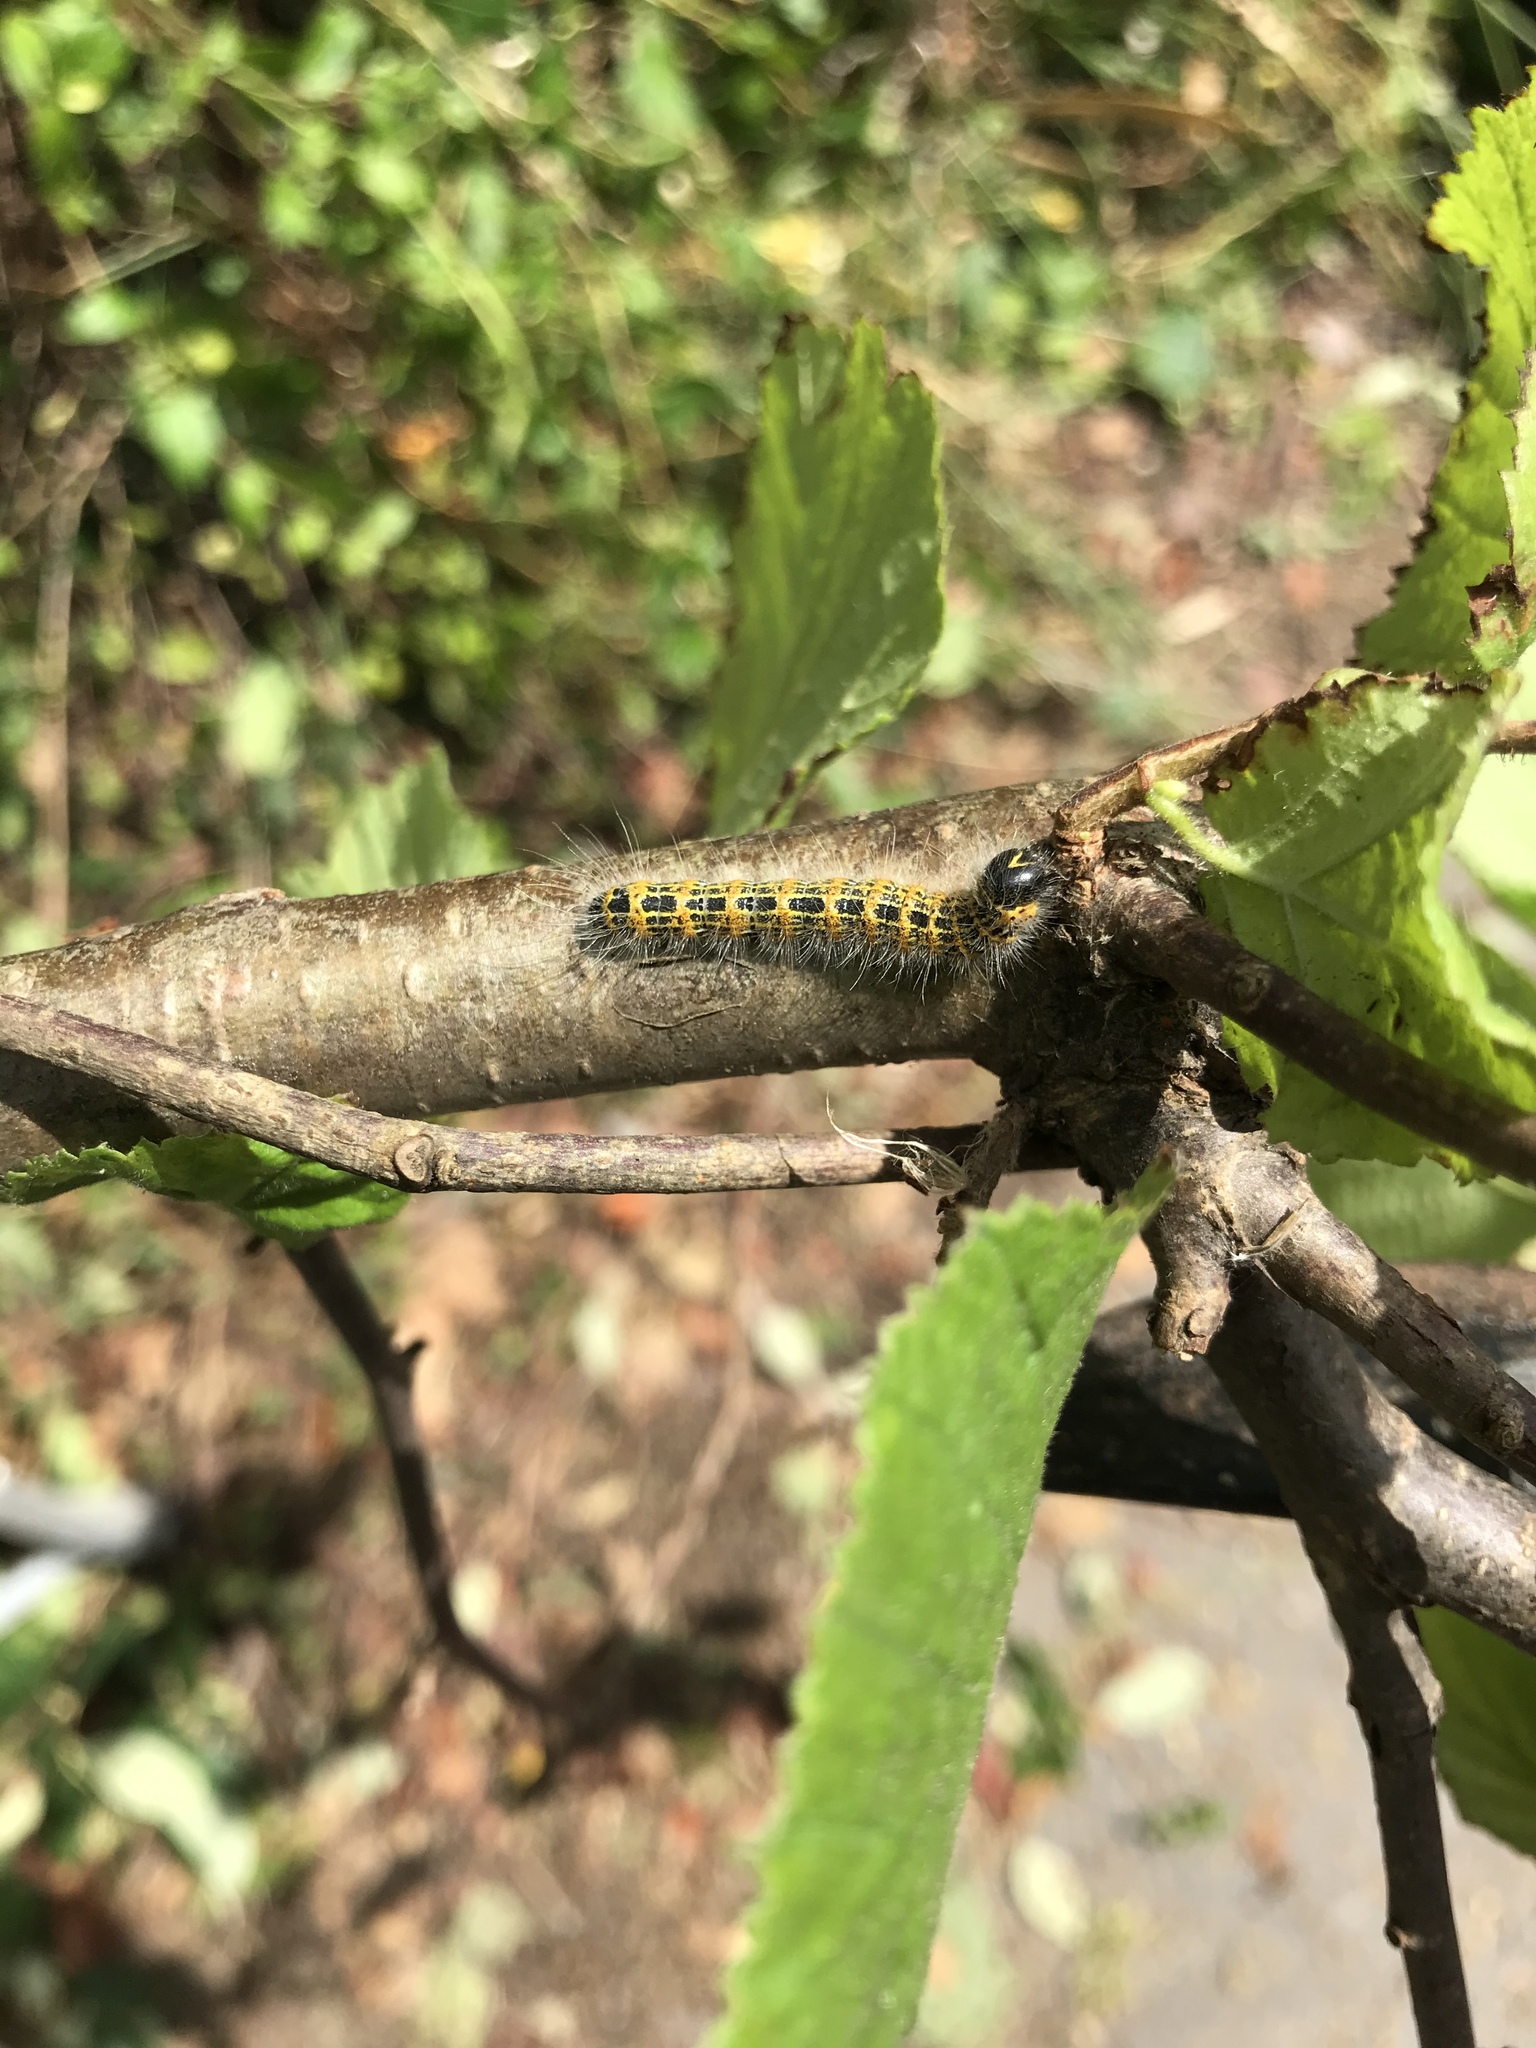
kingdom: Animalia
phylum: Arthropoda
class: Insecta
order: Lepidoptera
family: Notodontidae
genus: Phalera
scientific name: Phalera bucephala
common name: Buff-tip
